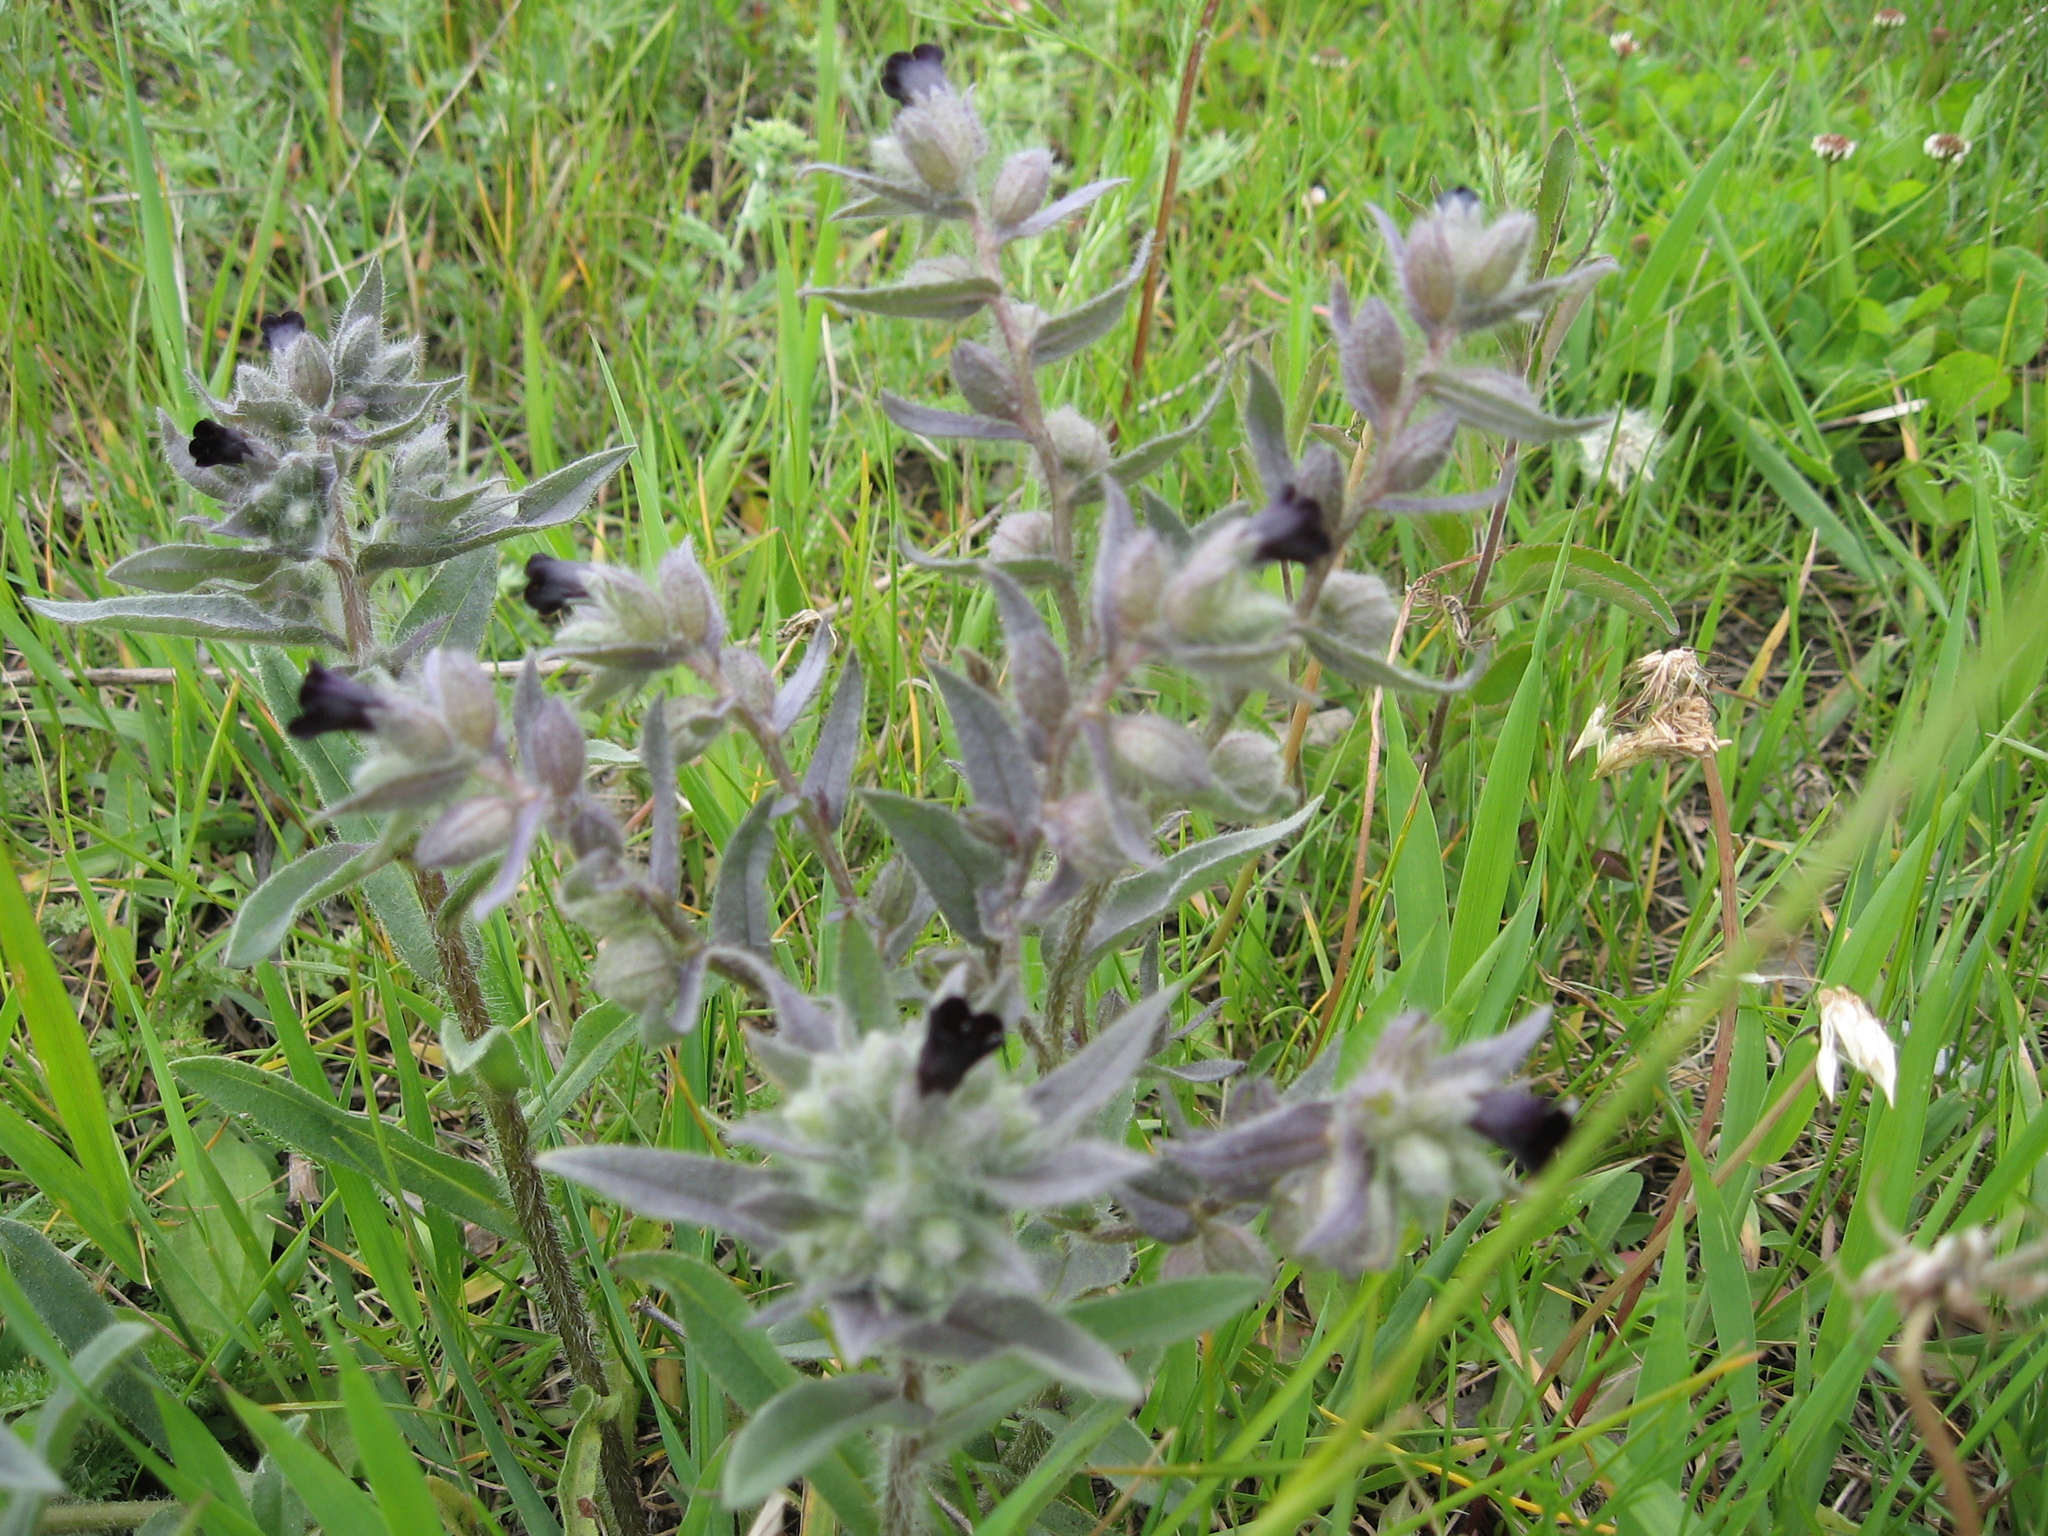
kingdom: Plantae
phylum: Tracheophyta
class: Magnoliopsida
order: Boraginales
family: Boraginaceae
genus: Nonea
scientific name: Nonea pulla
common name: Brown nonea
